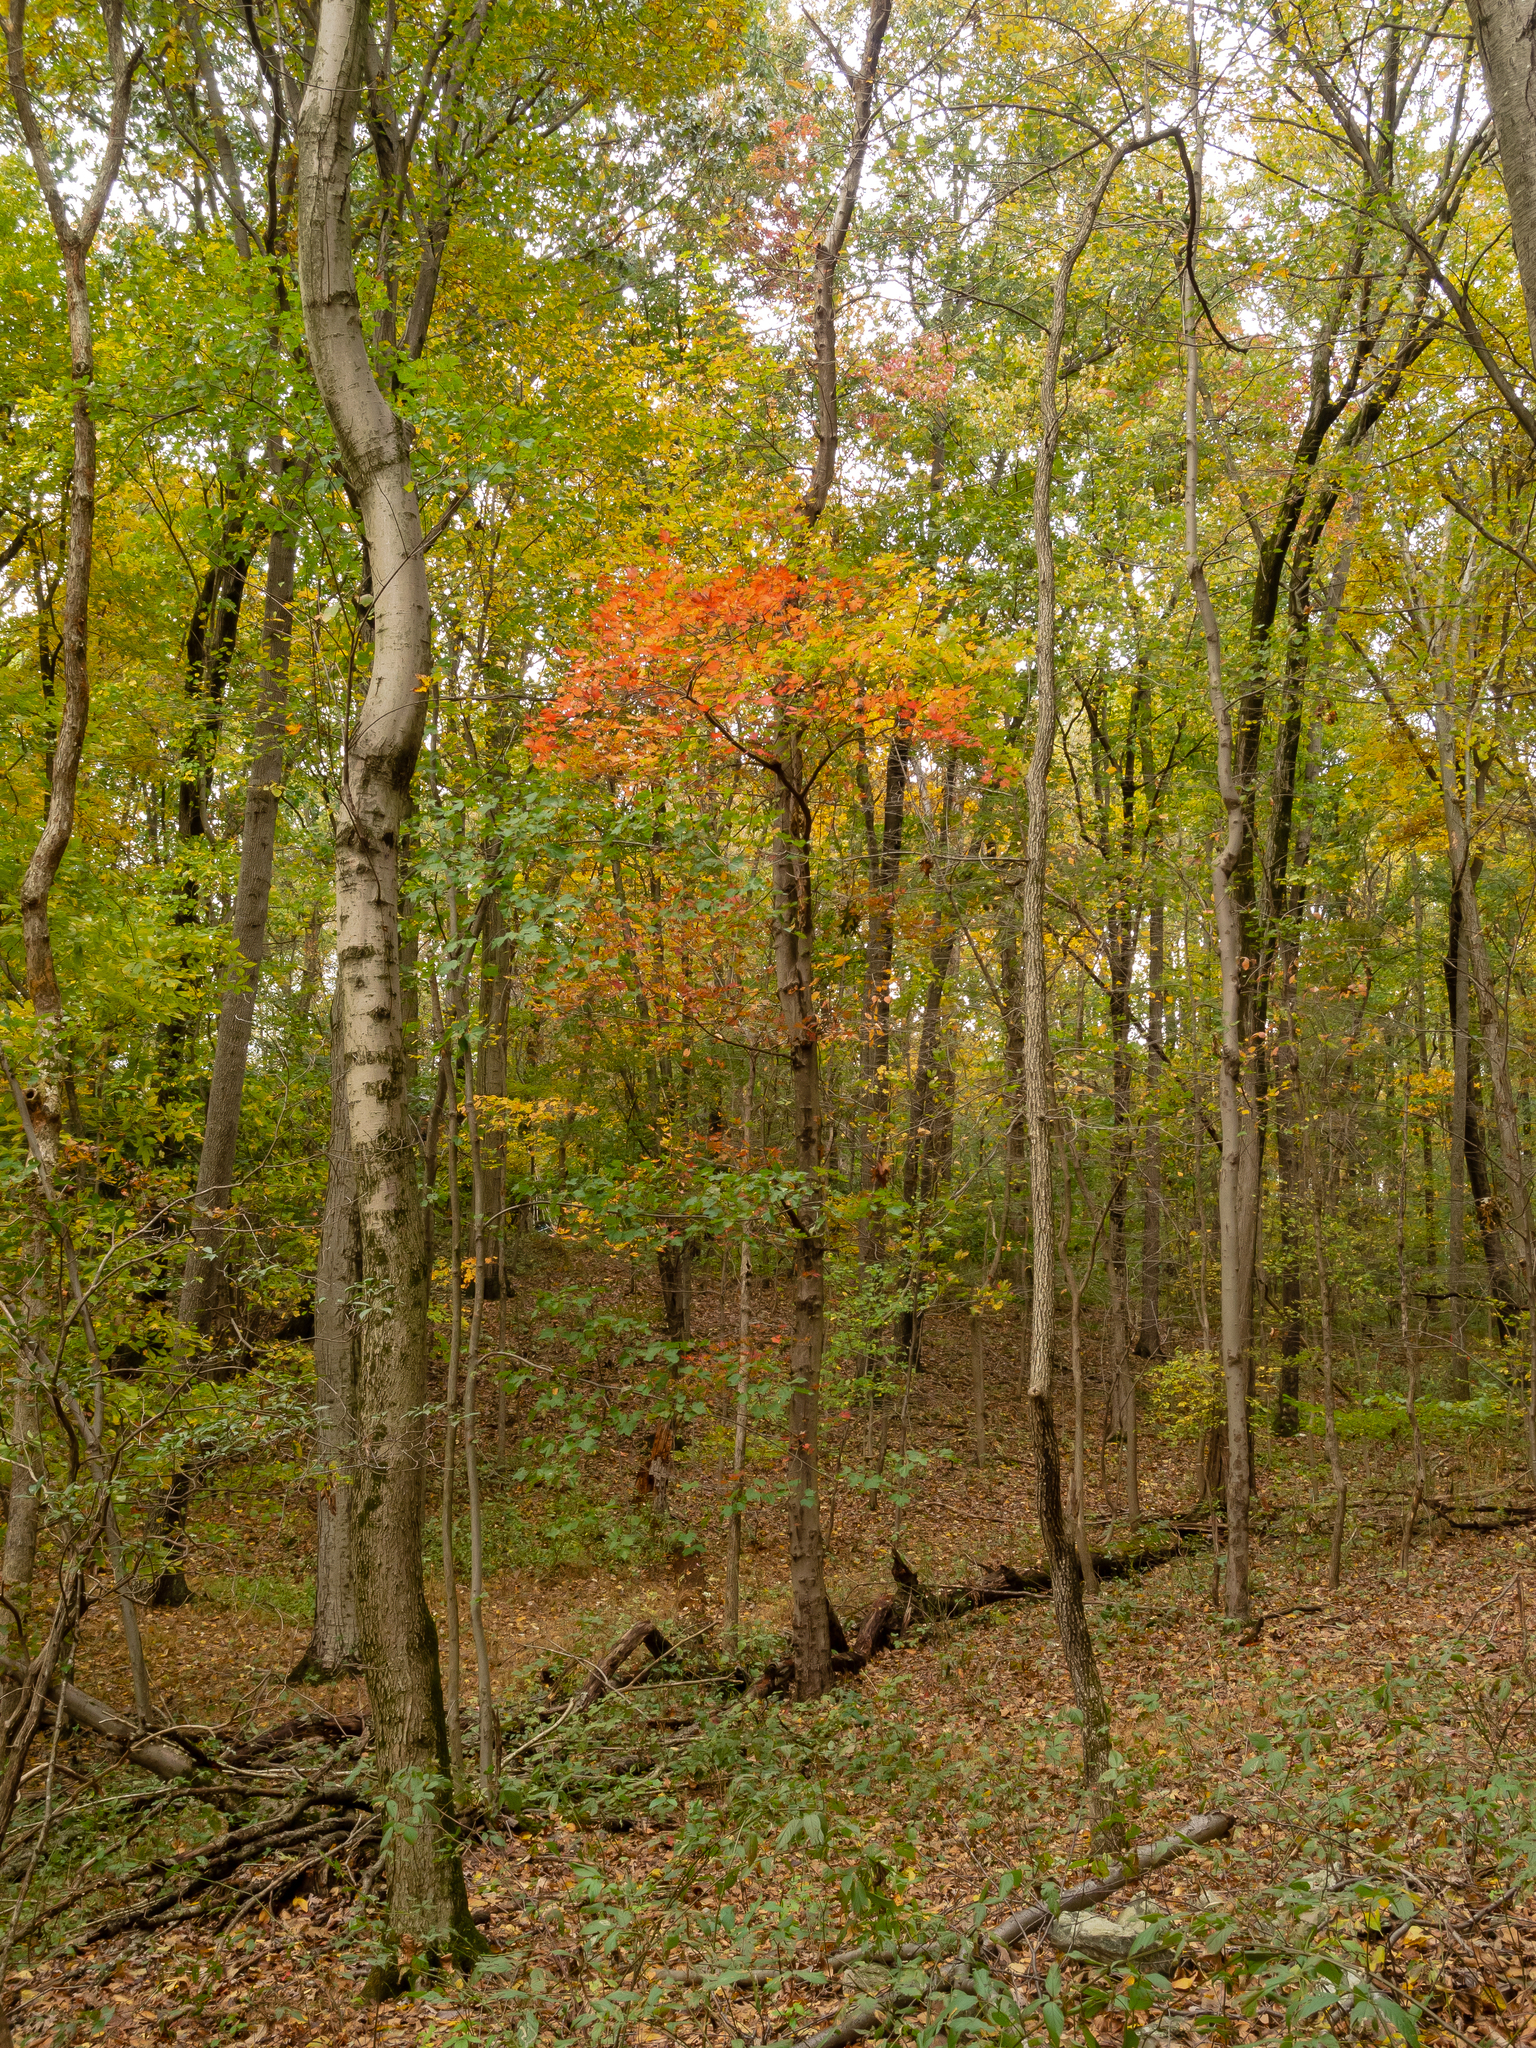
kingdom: Plantae
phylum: Tracheophyta
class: Magnoliopsida
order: Sapindales
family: Sapindaceae
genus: Acer
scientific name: Acer rubrum
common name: Red maple
